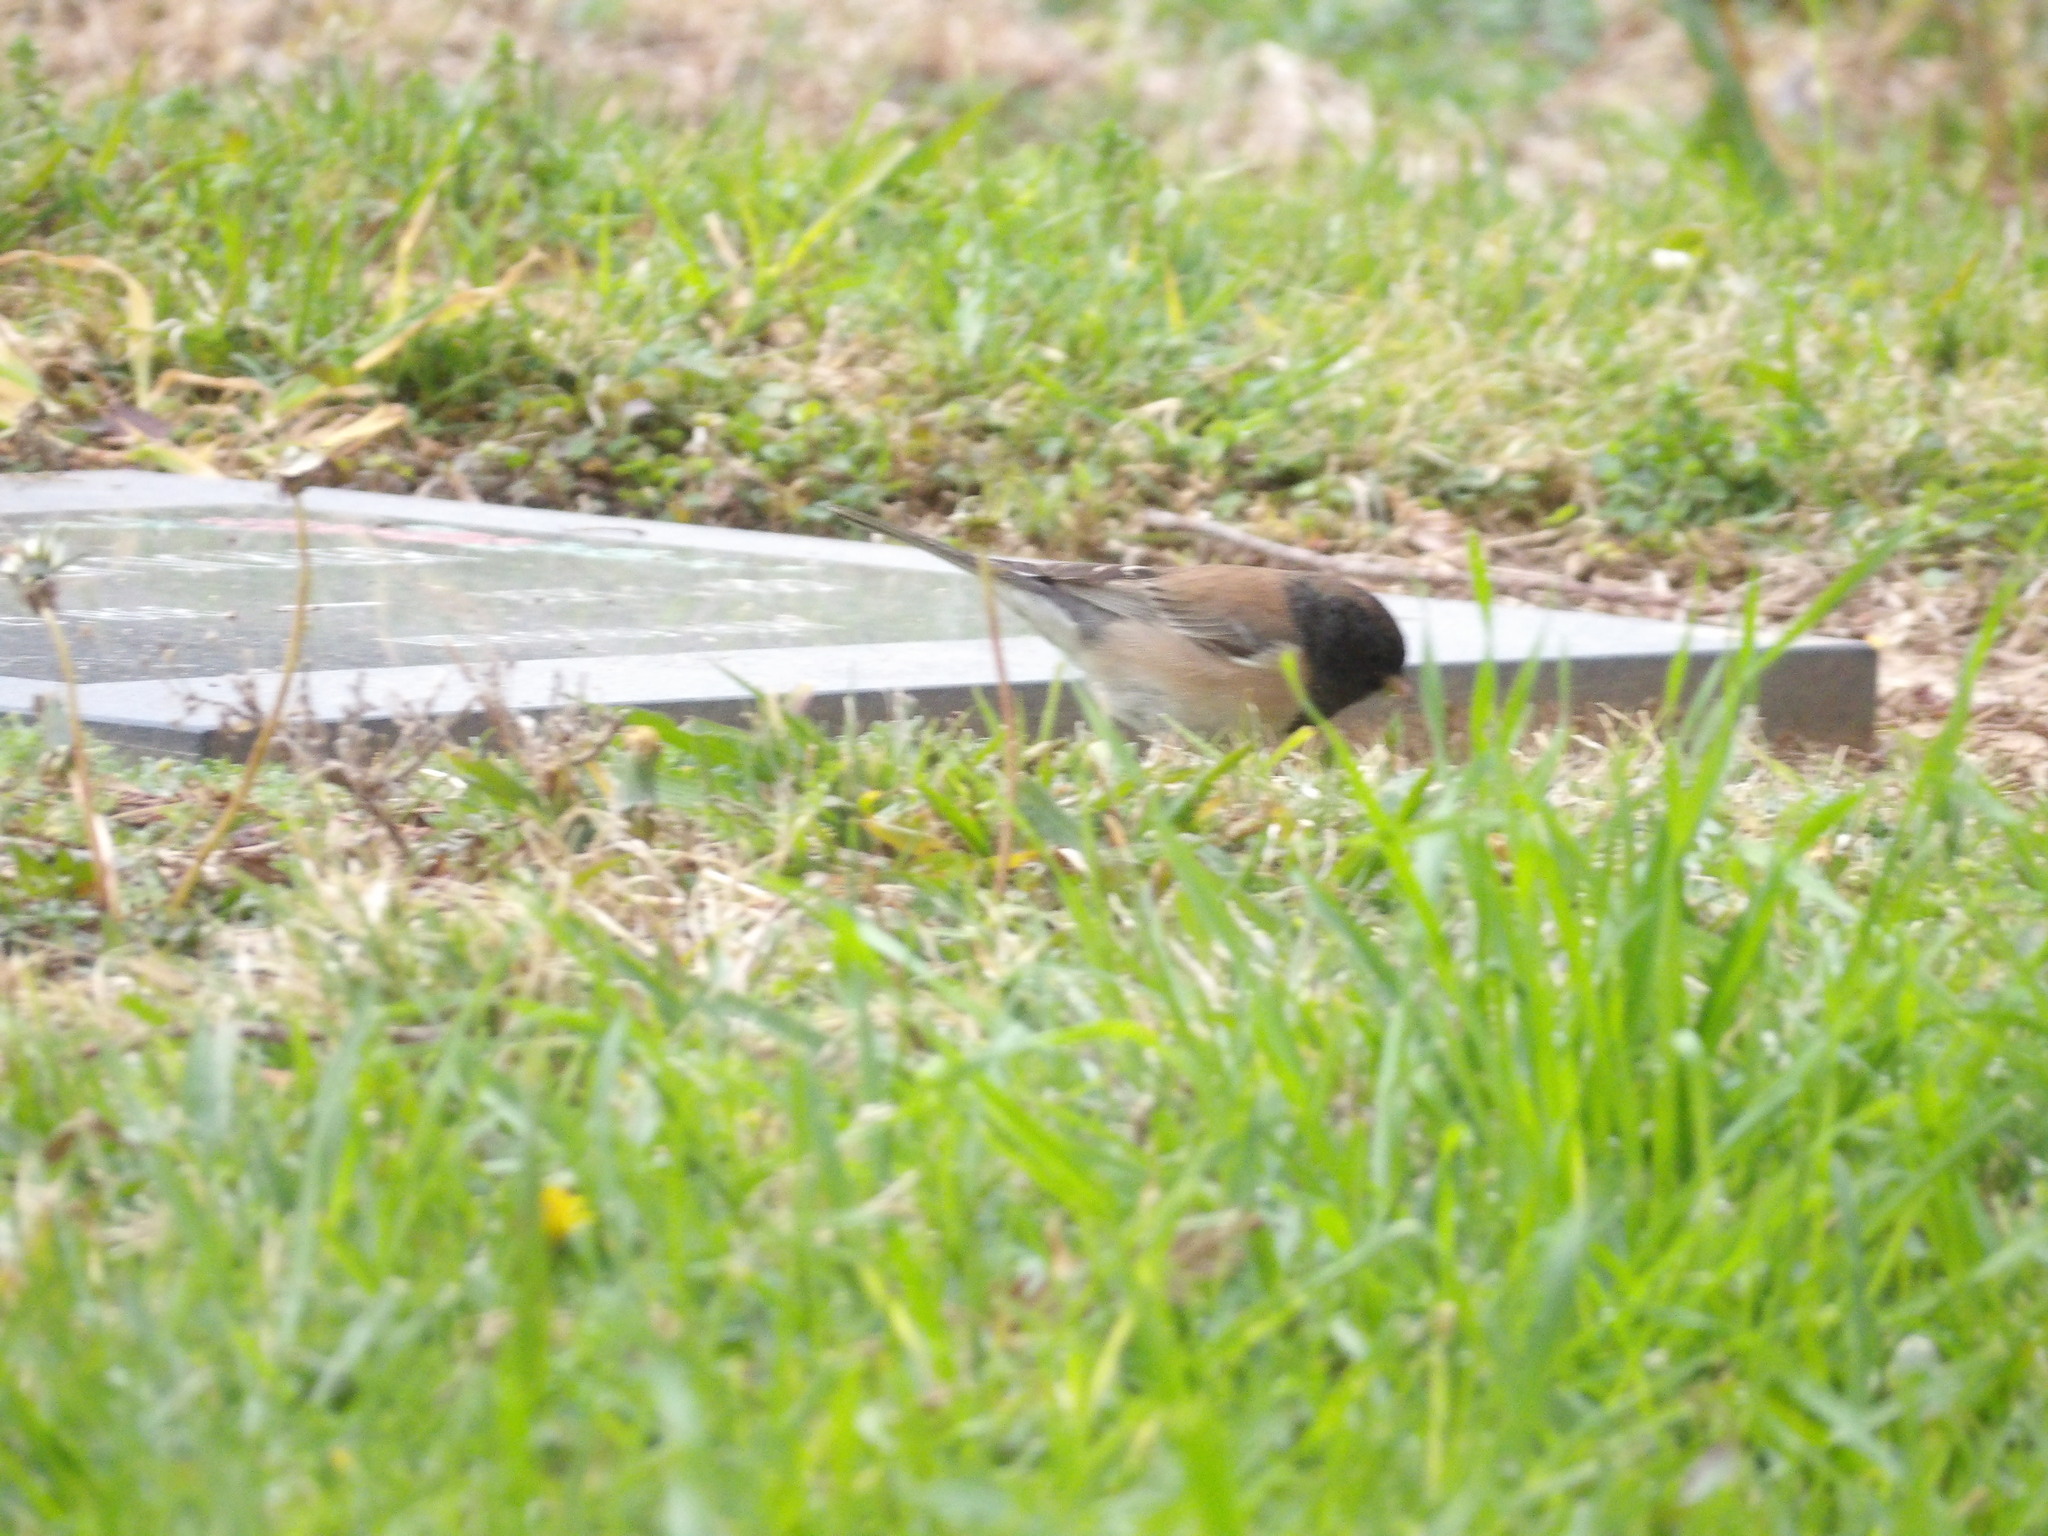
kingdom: Animalia
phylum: Chordata
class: Aves
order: Passeriformes
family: Passerellidae
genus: Junco
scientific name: Junco hyemalis
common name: Dark-eyed junco
